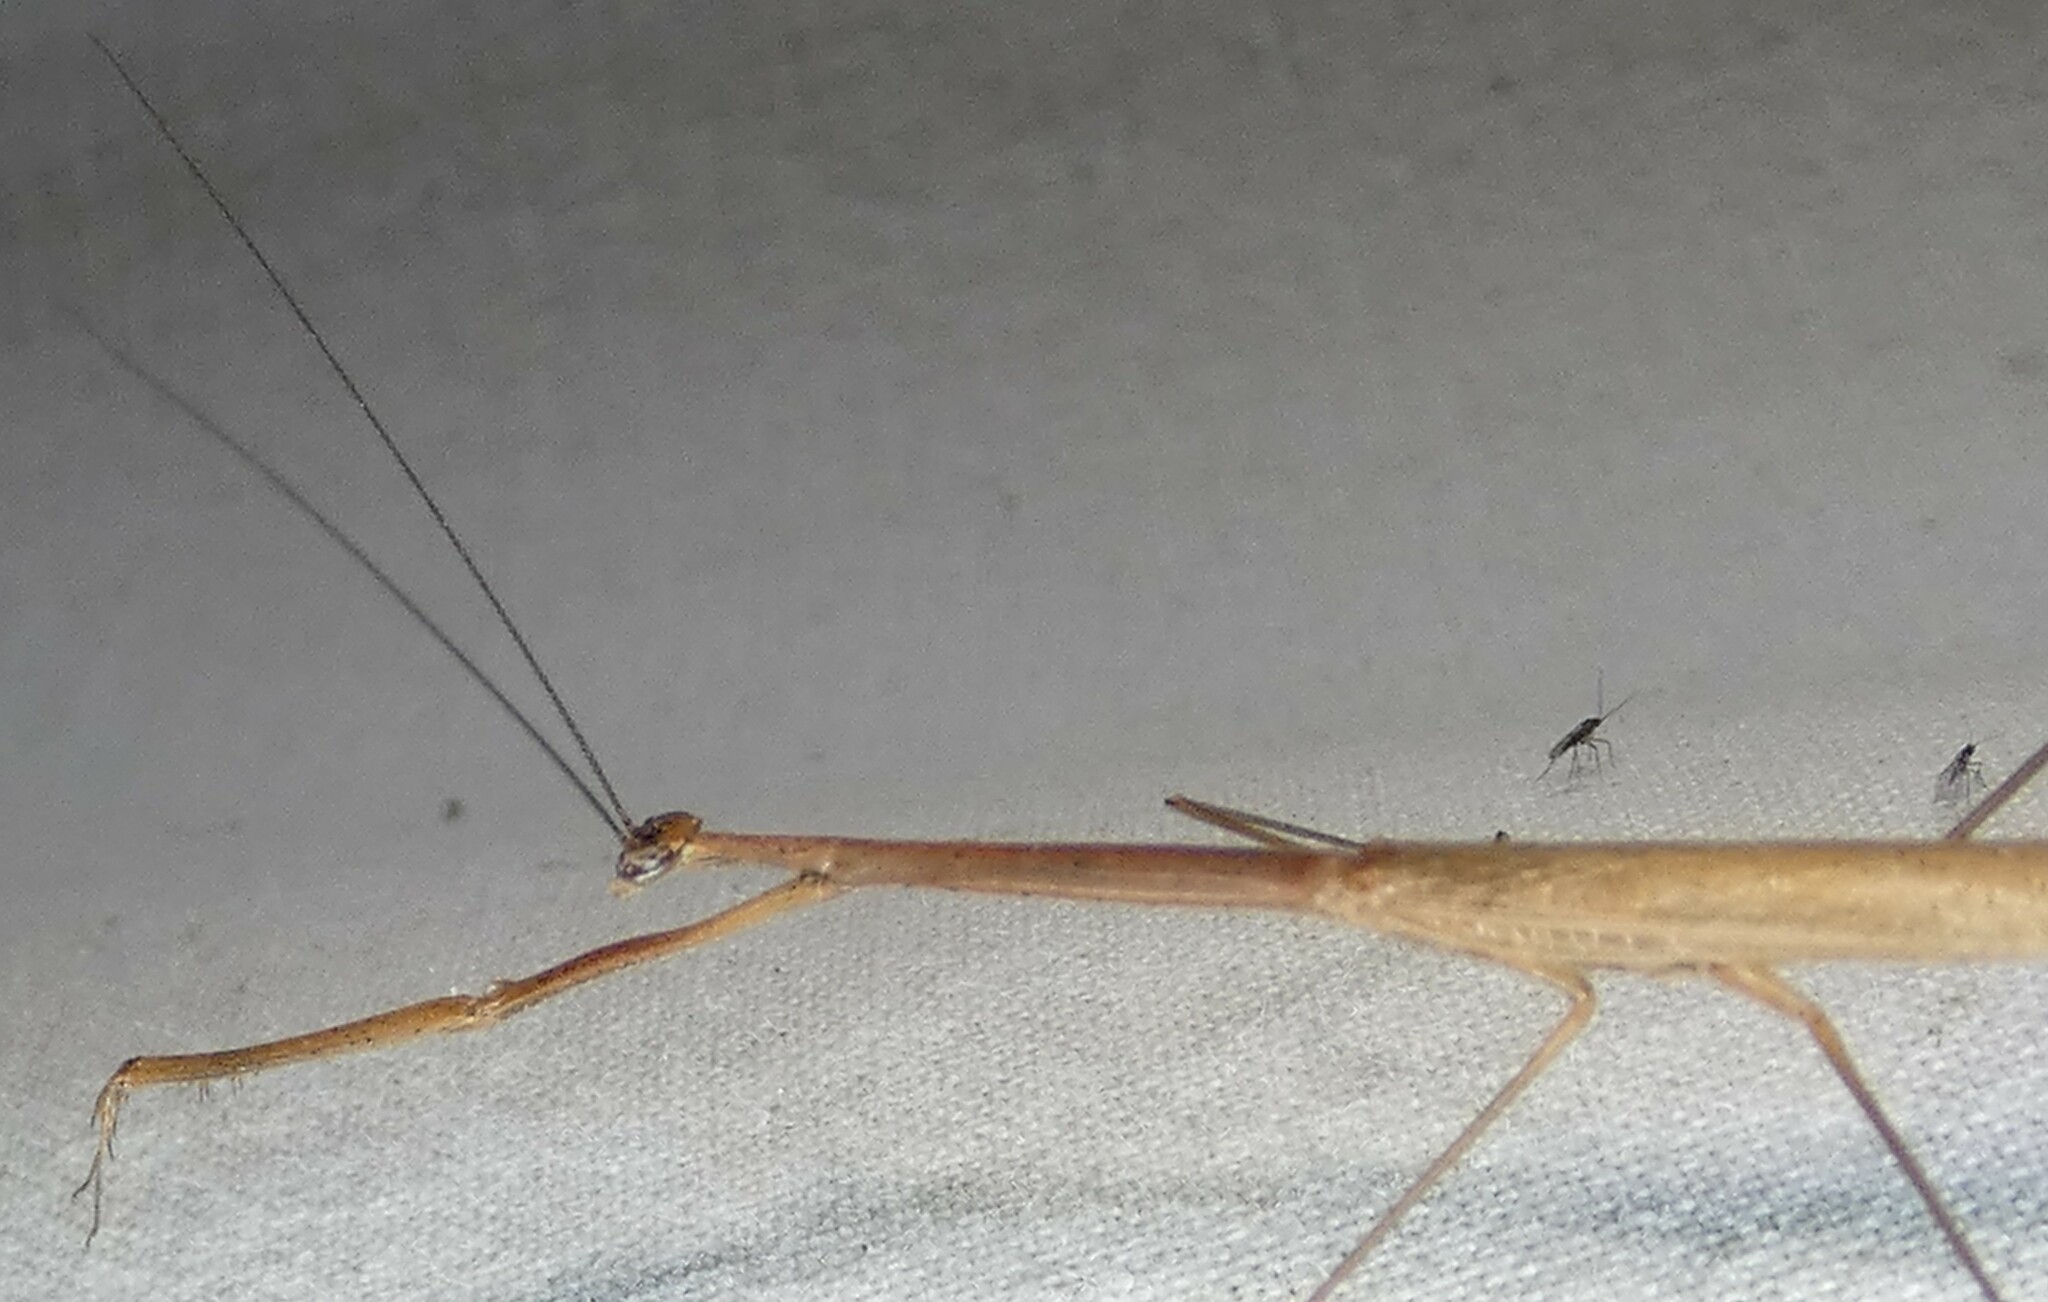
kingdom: Animalia
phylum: Arthropoda
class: Insecta
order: Mantodea
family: Thespidae
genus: Thesprotia
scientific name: Thesprotia graminis
